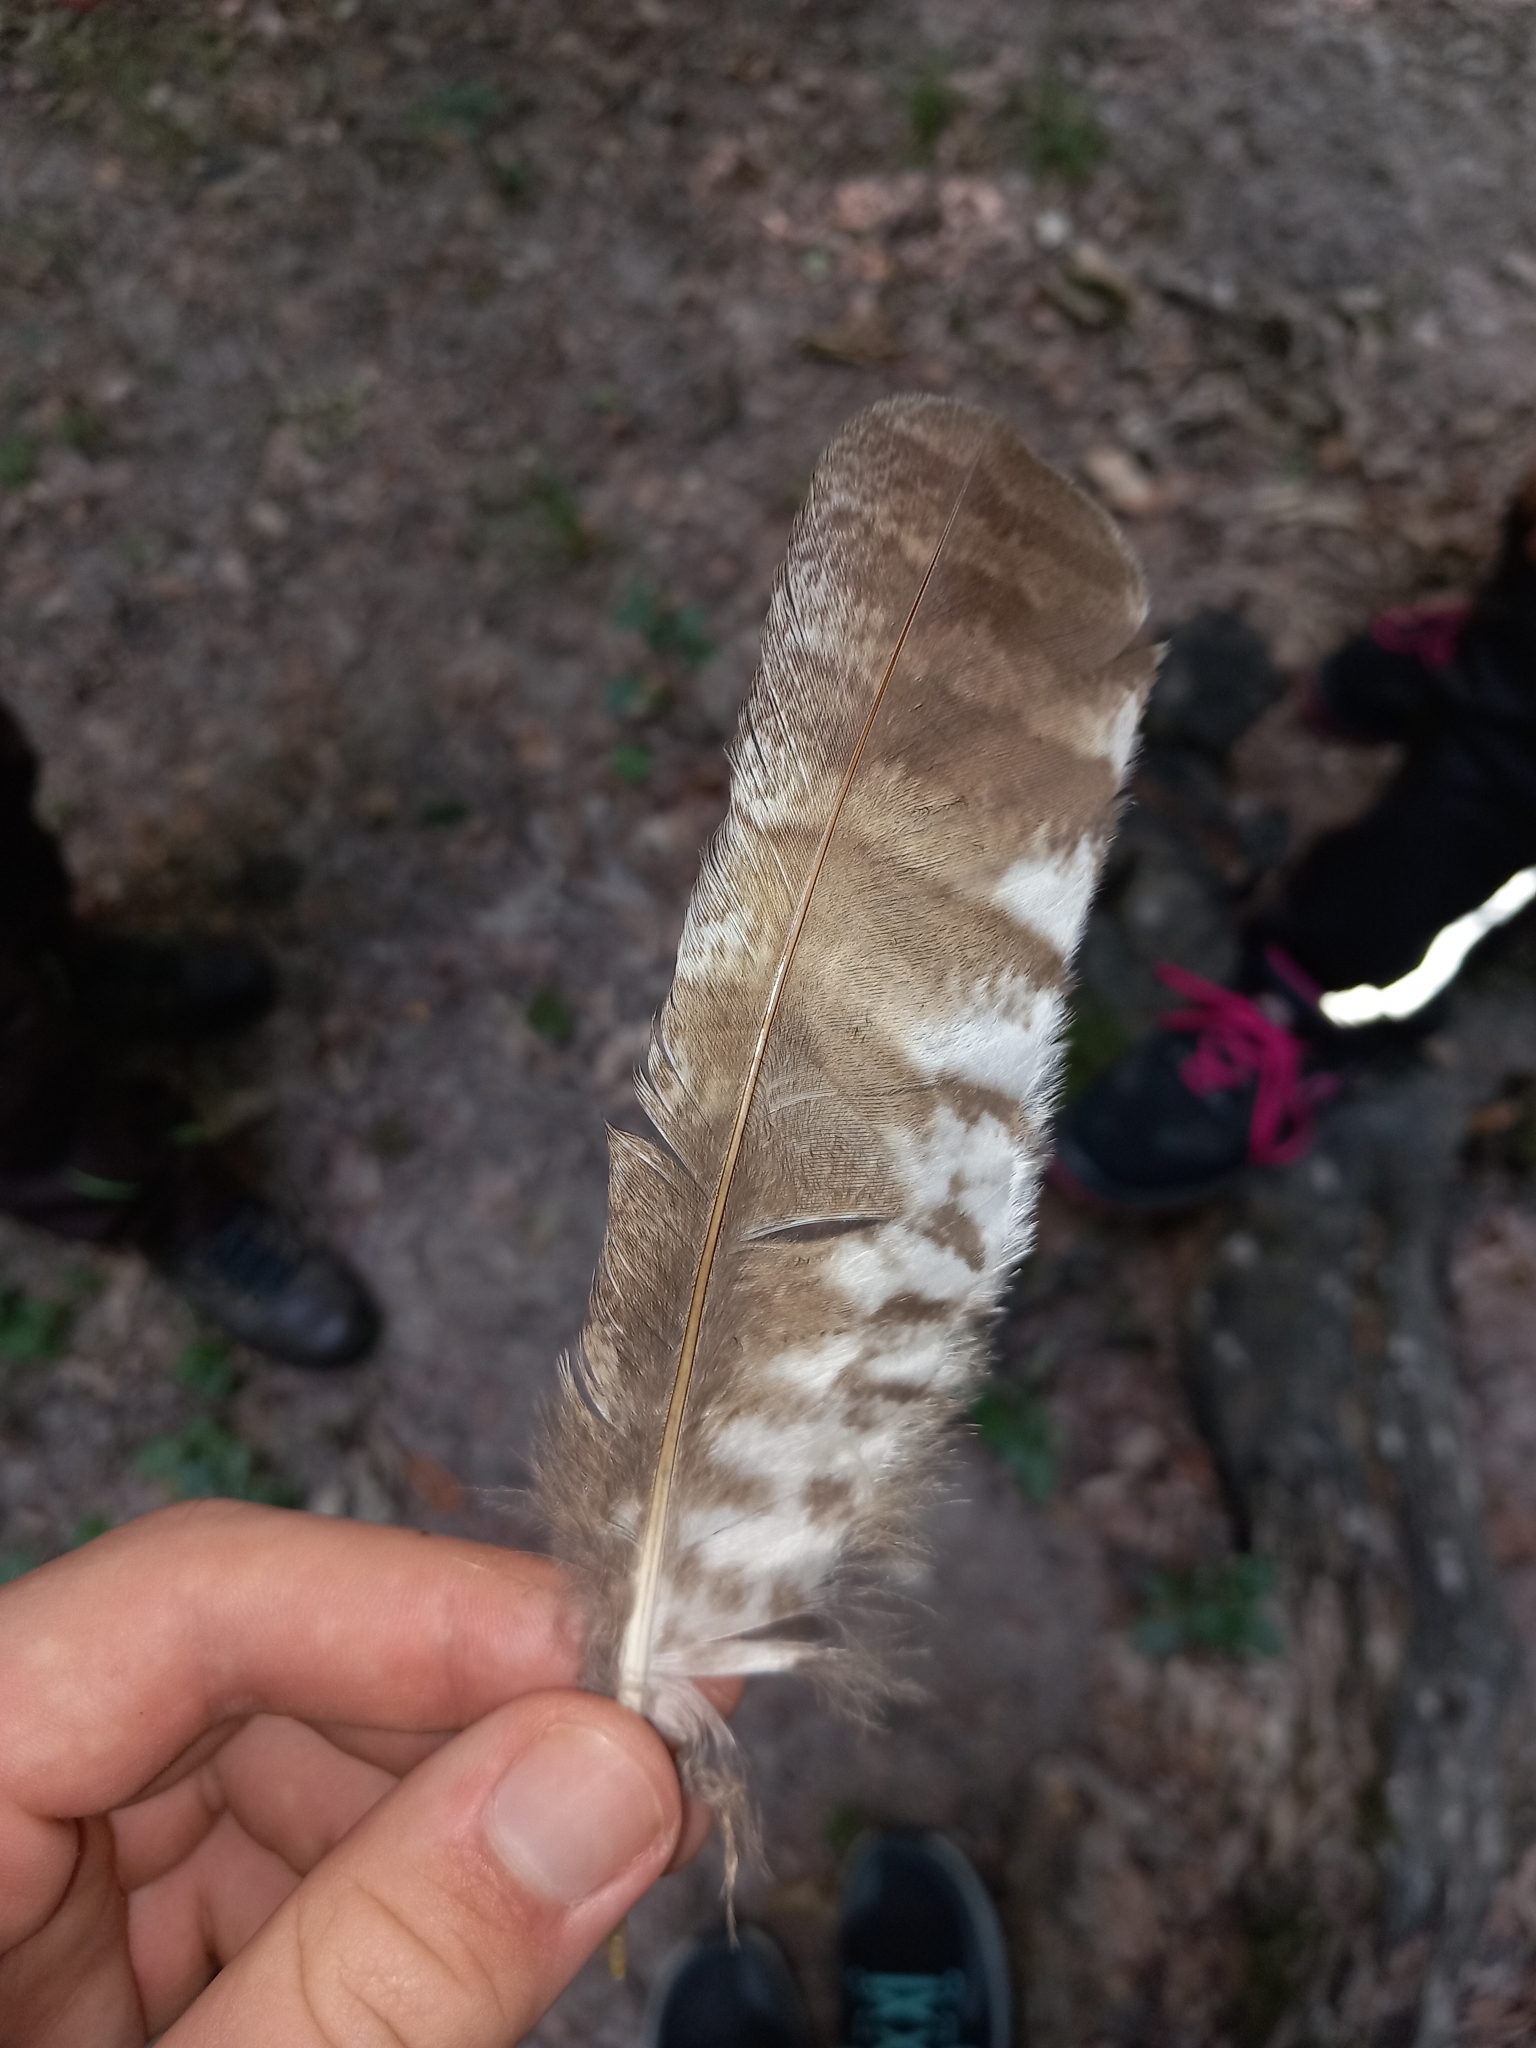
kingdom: Animalia
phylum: Chordata
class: Aves
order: Strigiformes
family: Strigidae
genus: Strix
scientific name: Strix aluco
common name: Tawny owl
